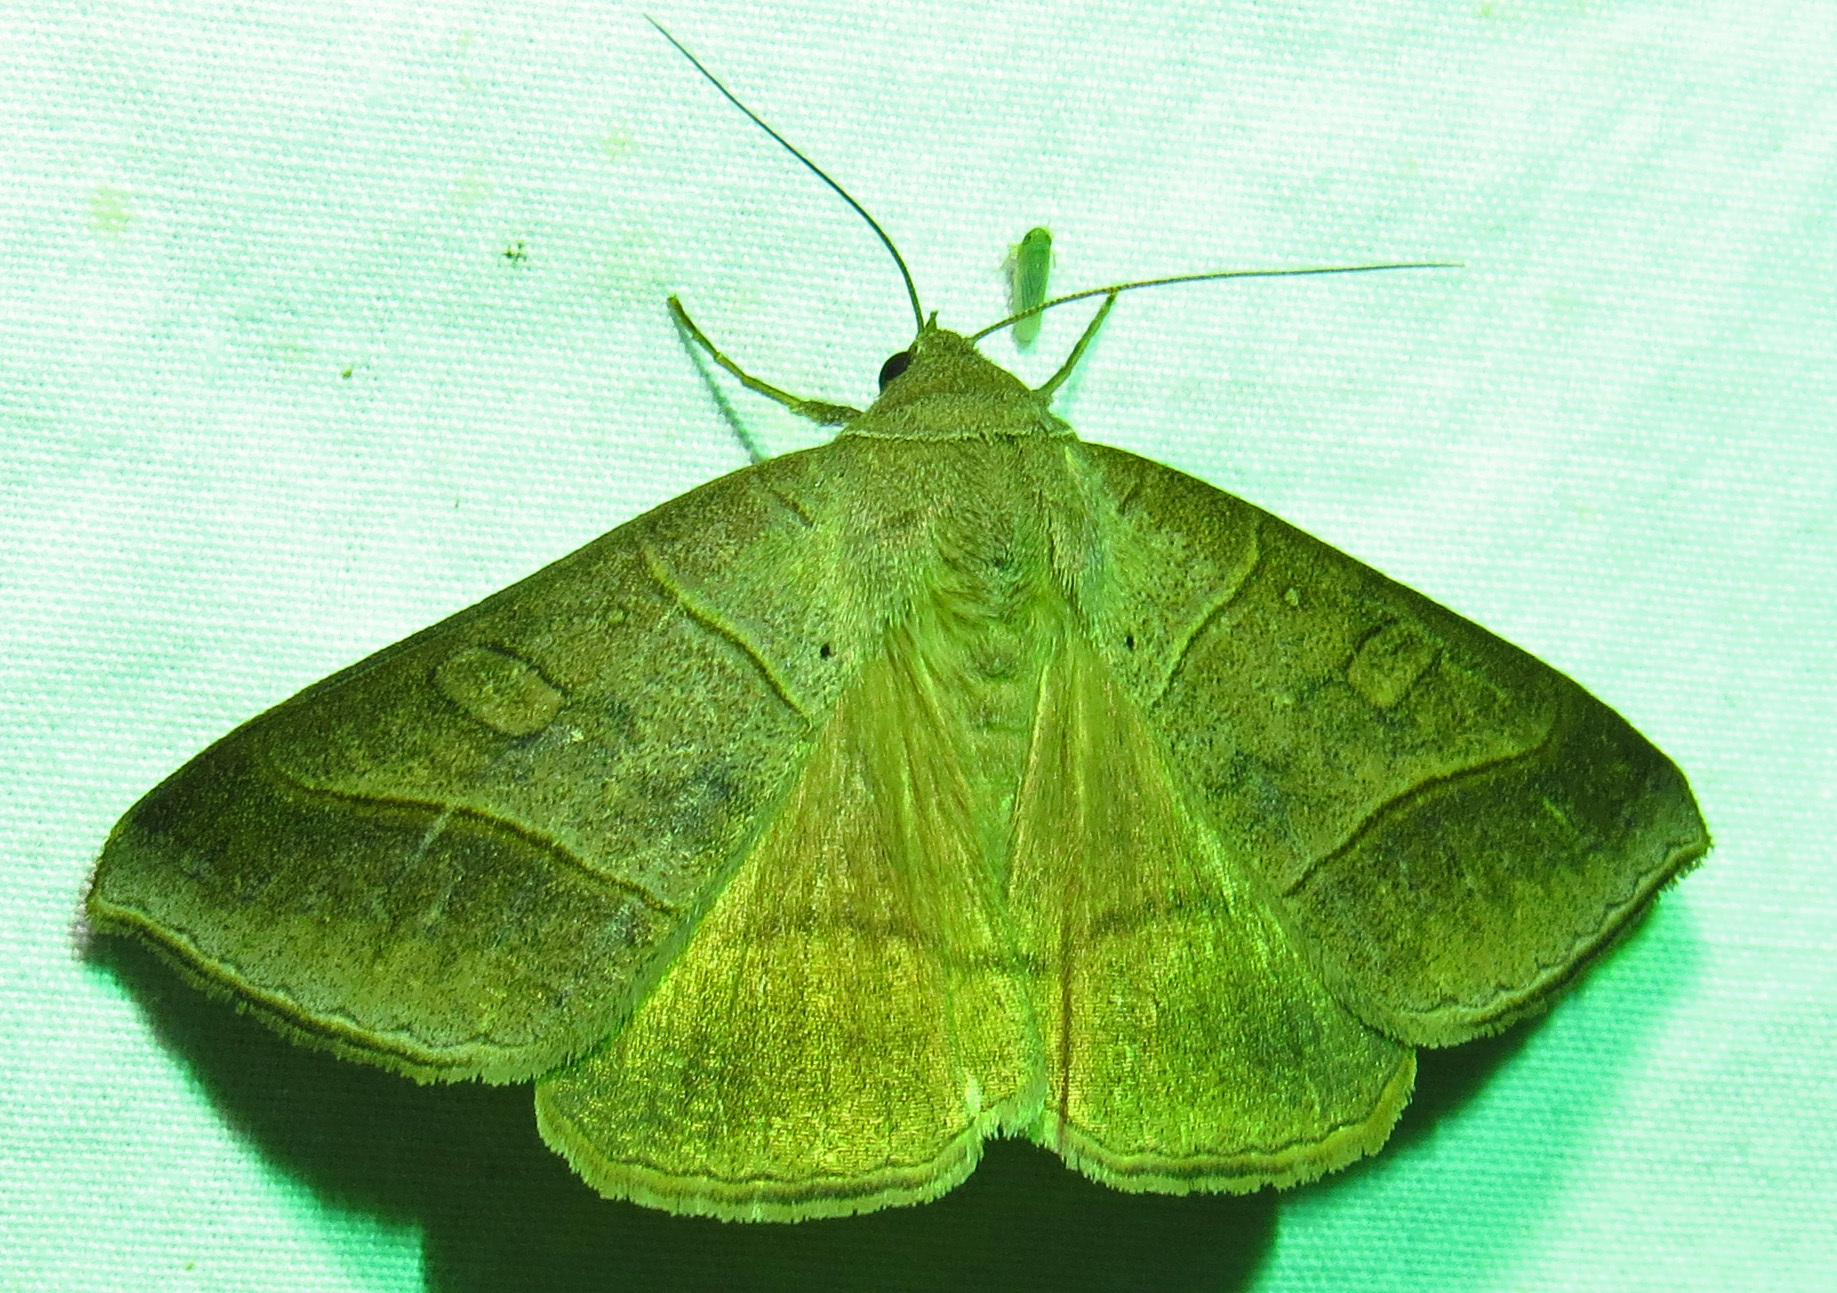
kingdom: Animalia
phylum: Arthropoda
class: Insecta
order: Lepidoptera
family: Erebidae
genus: Mocis
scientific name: Mocis texana
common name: Texas mocis moth
